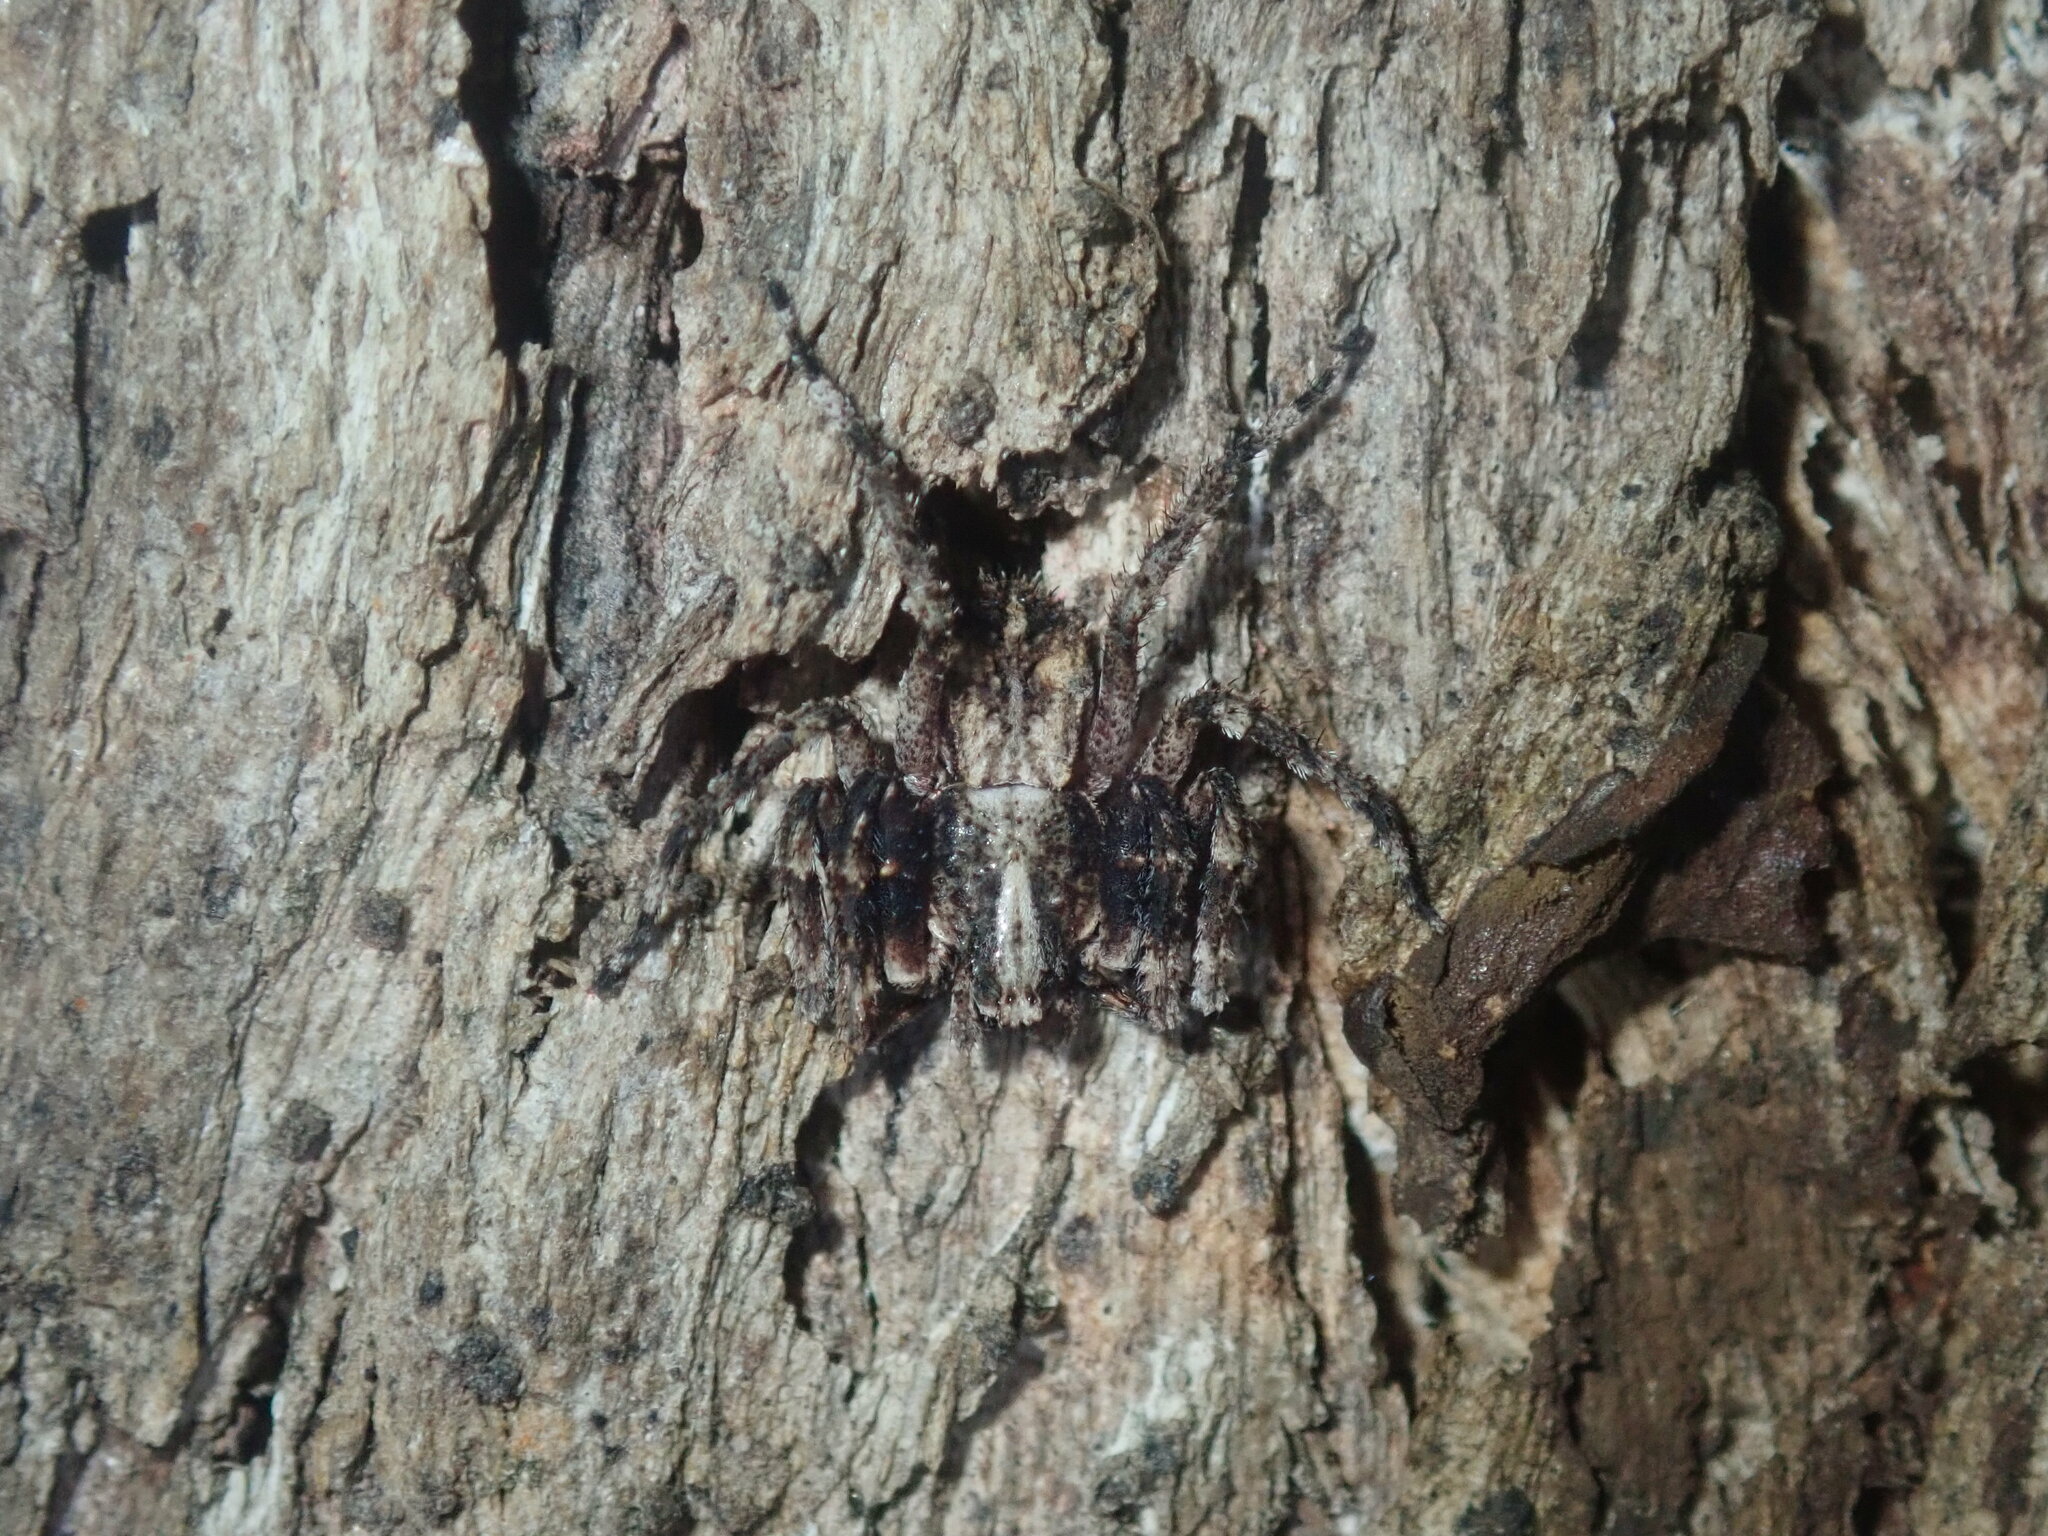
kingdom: Animalia
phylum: Arthropoda
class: Arachnida
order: Araneae
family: Thomisidae
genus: Stephanopis
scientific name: Stephanopis altifrons
